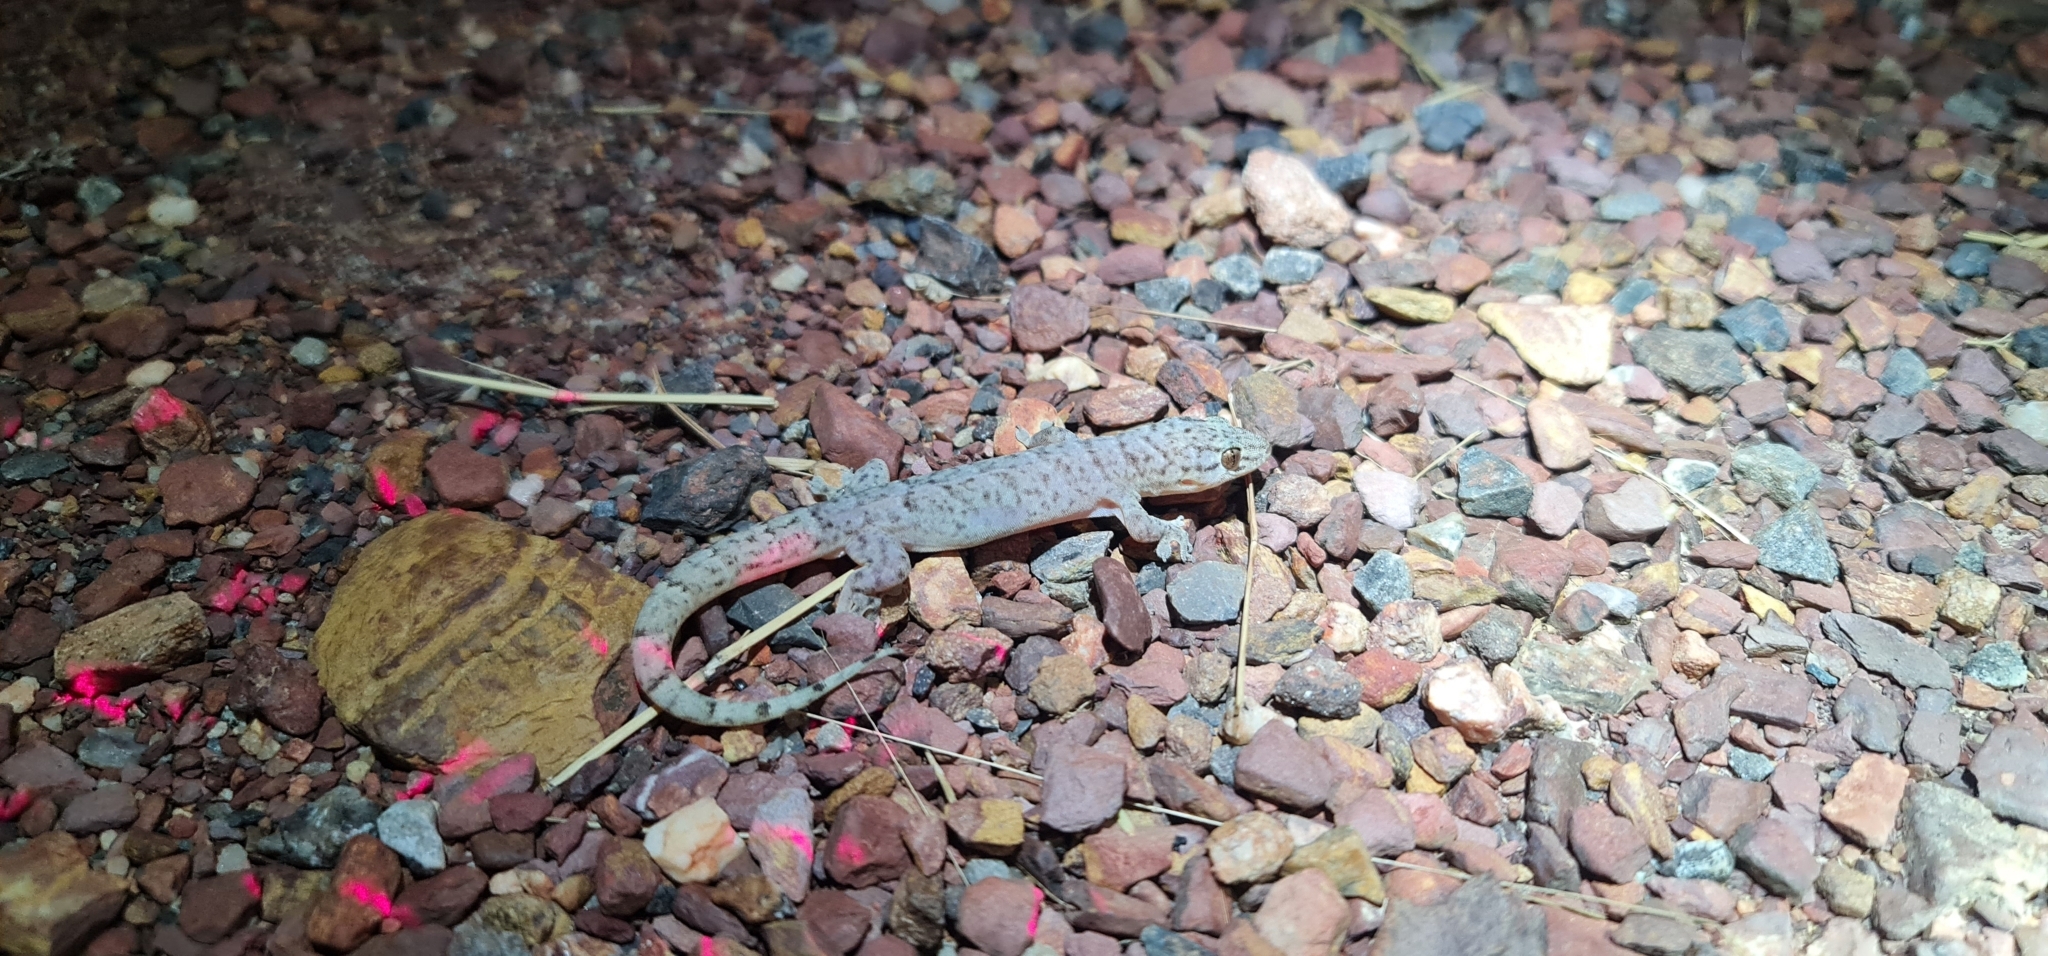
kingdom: Animalia
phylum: Chordata
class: Squamata
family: Gekkonidae
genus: Gehyra
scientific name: Gehyra australis
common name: House gecko
